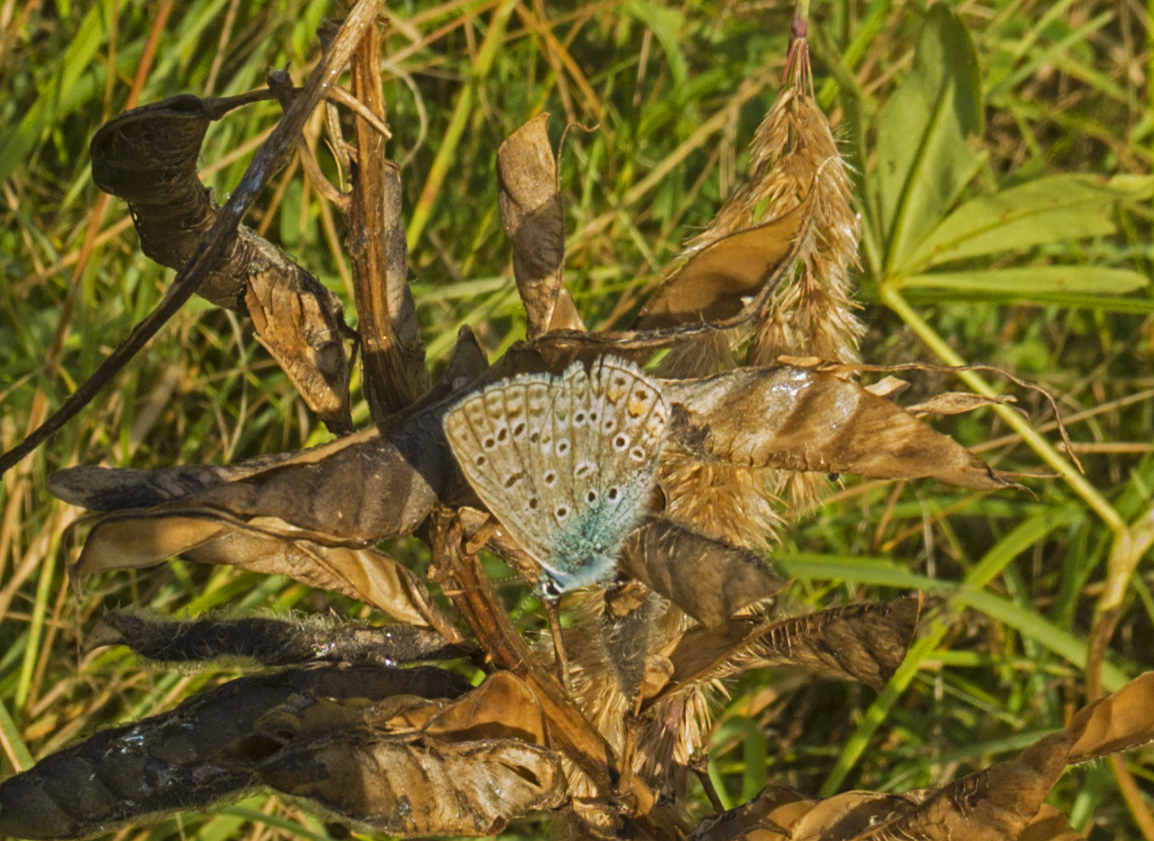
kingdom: Animalia
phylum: Arthropoda
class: Insecta
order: Lepidoptera
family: Lycaenidae
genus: Polyommatus
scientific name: Polyommatus icarus
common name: Common blue
